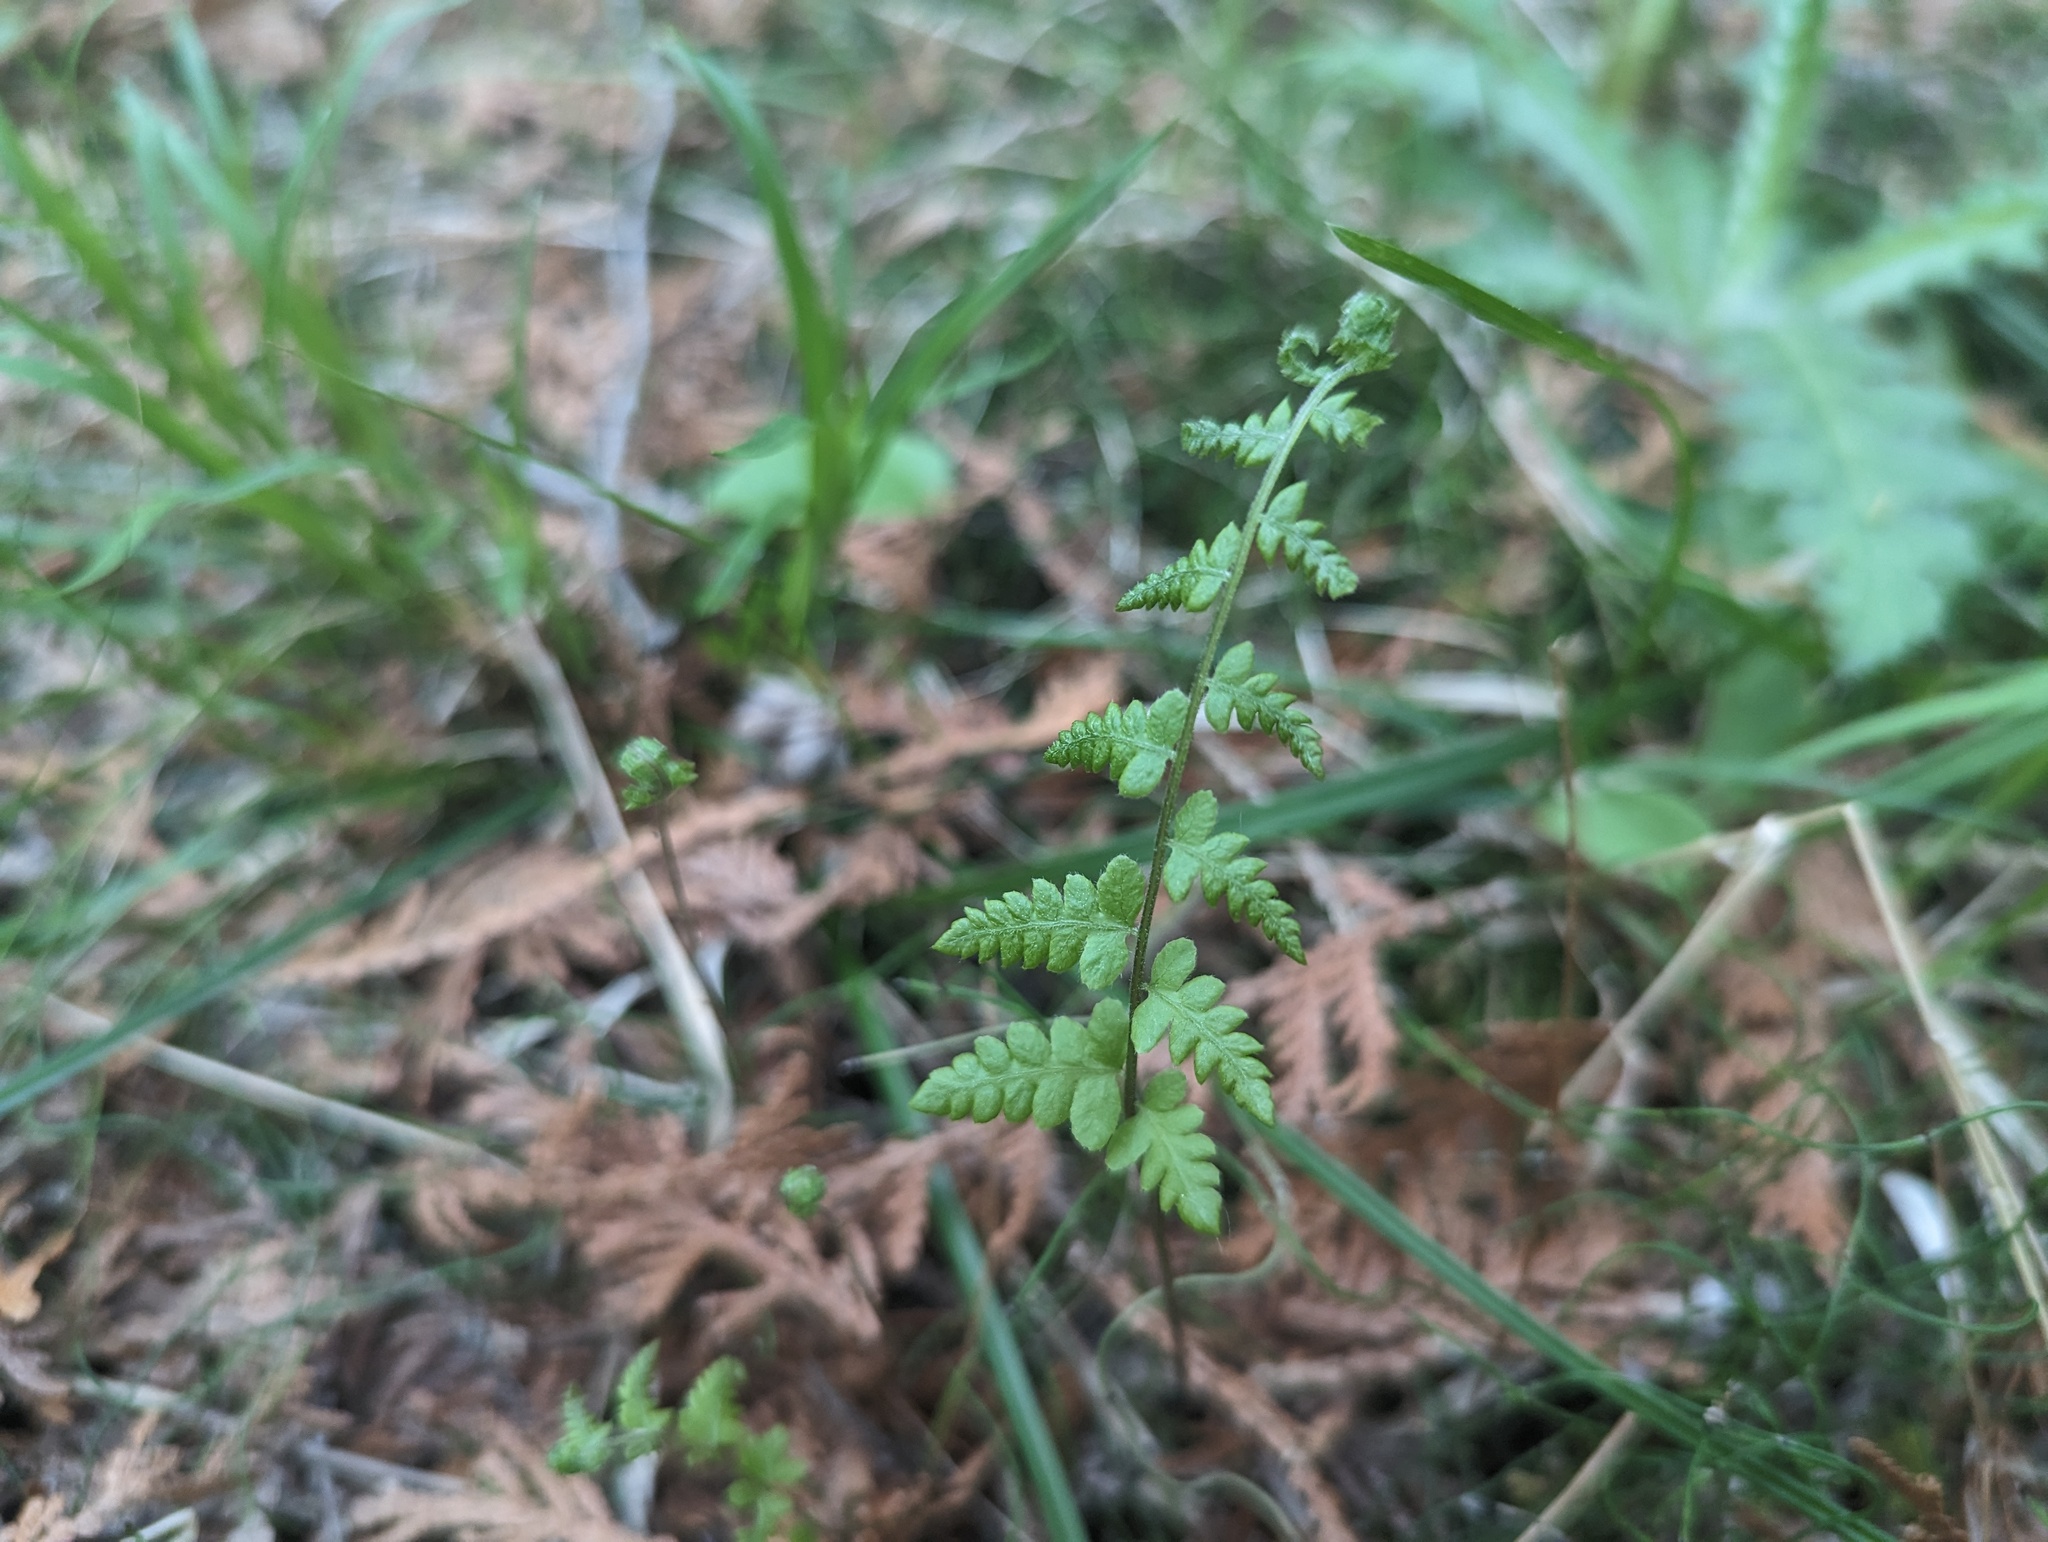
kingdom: Plantae
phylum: Tracheophyta
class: Polypodiopsida
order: Polypodiales
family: Thelypteridaceae
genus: Thelypteris
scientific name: Thelypteris palustris
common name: Marsh fern
